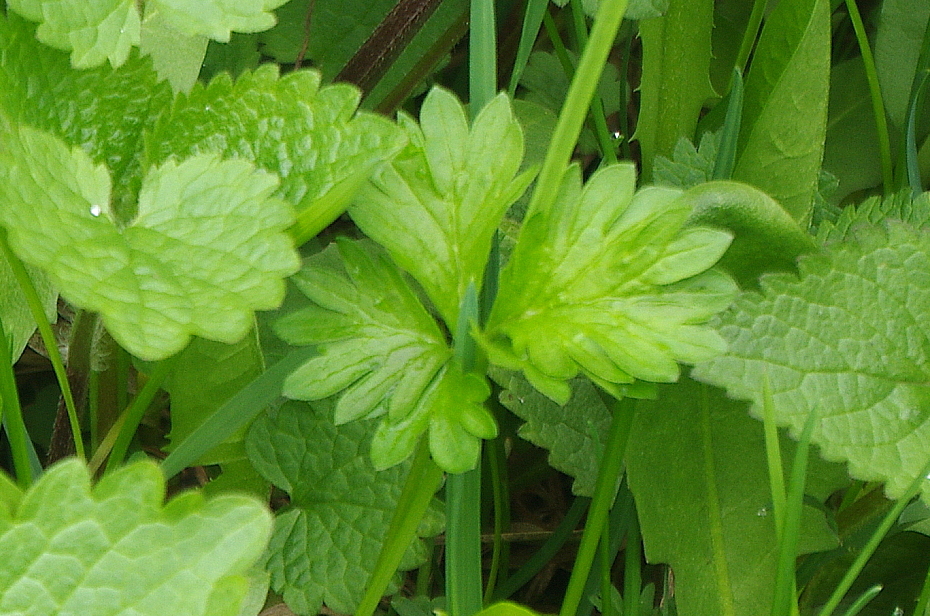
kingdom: Plantae
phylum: Tracheophyta
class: Magnoliopsida
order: Rosales
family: Rosaceae
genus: Potentilla
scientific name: Potentilla intermedia
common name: Downy cinquefoil
